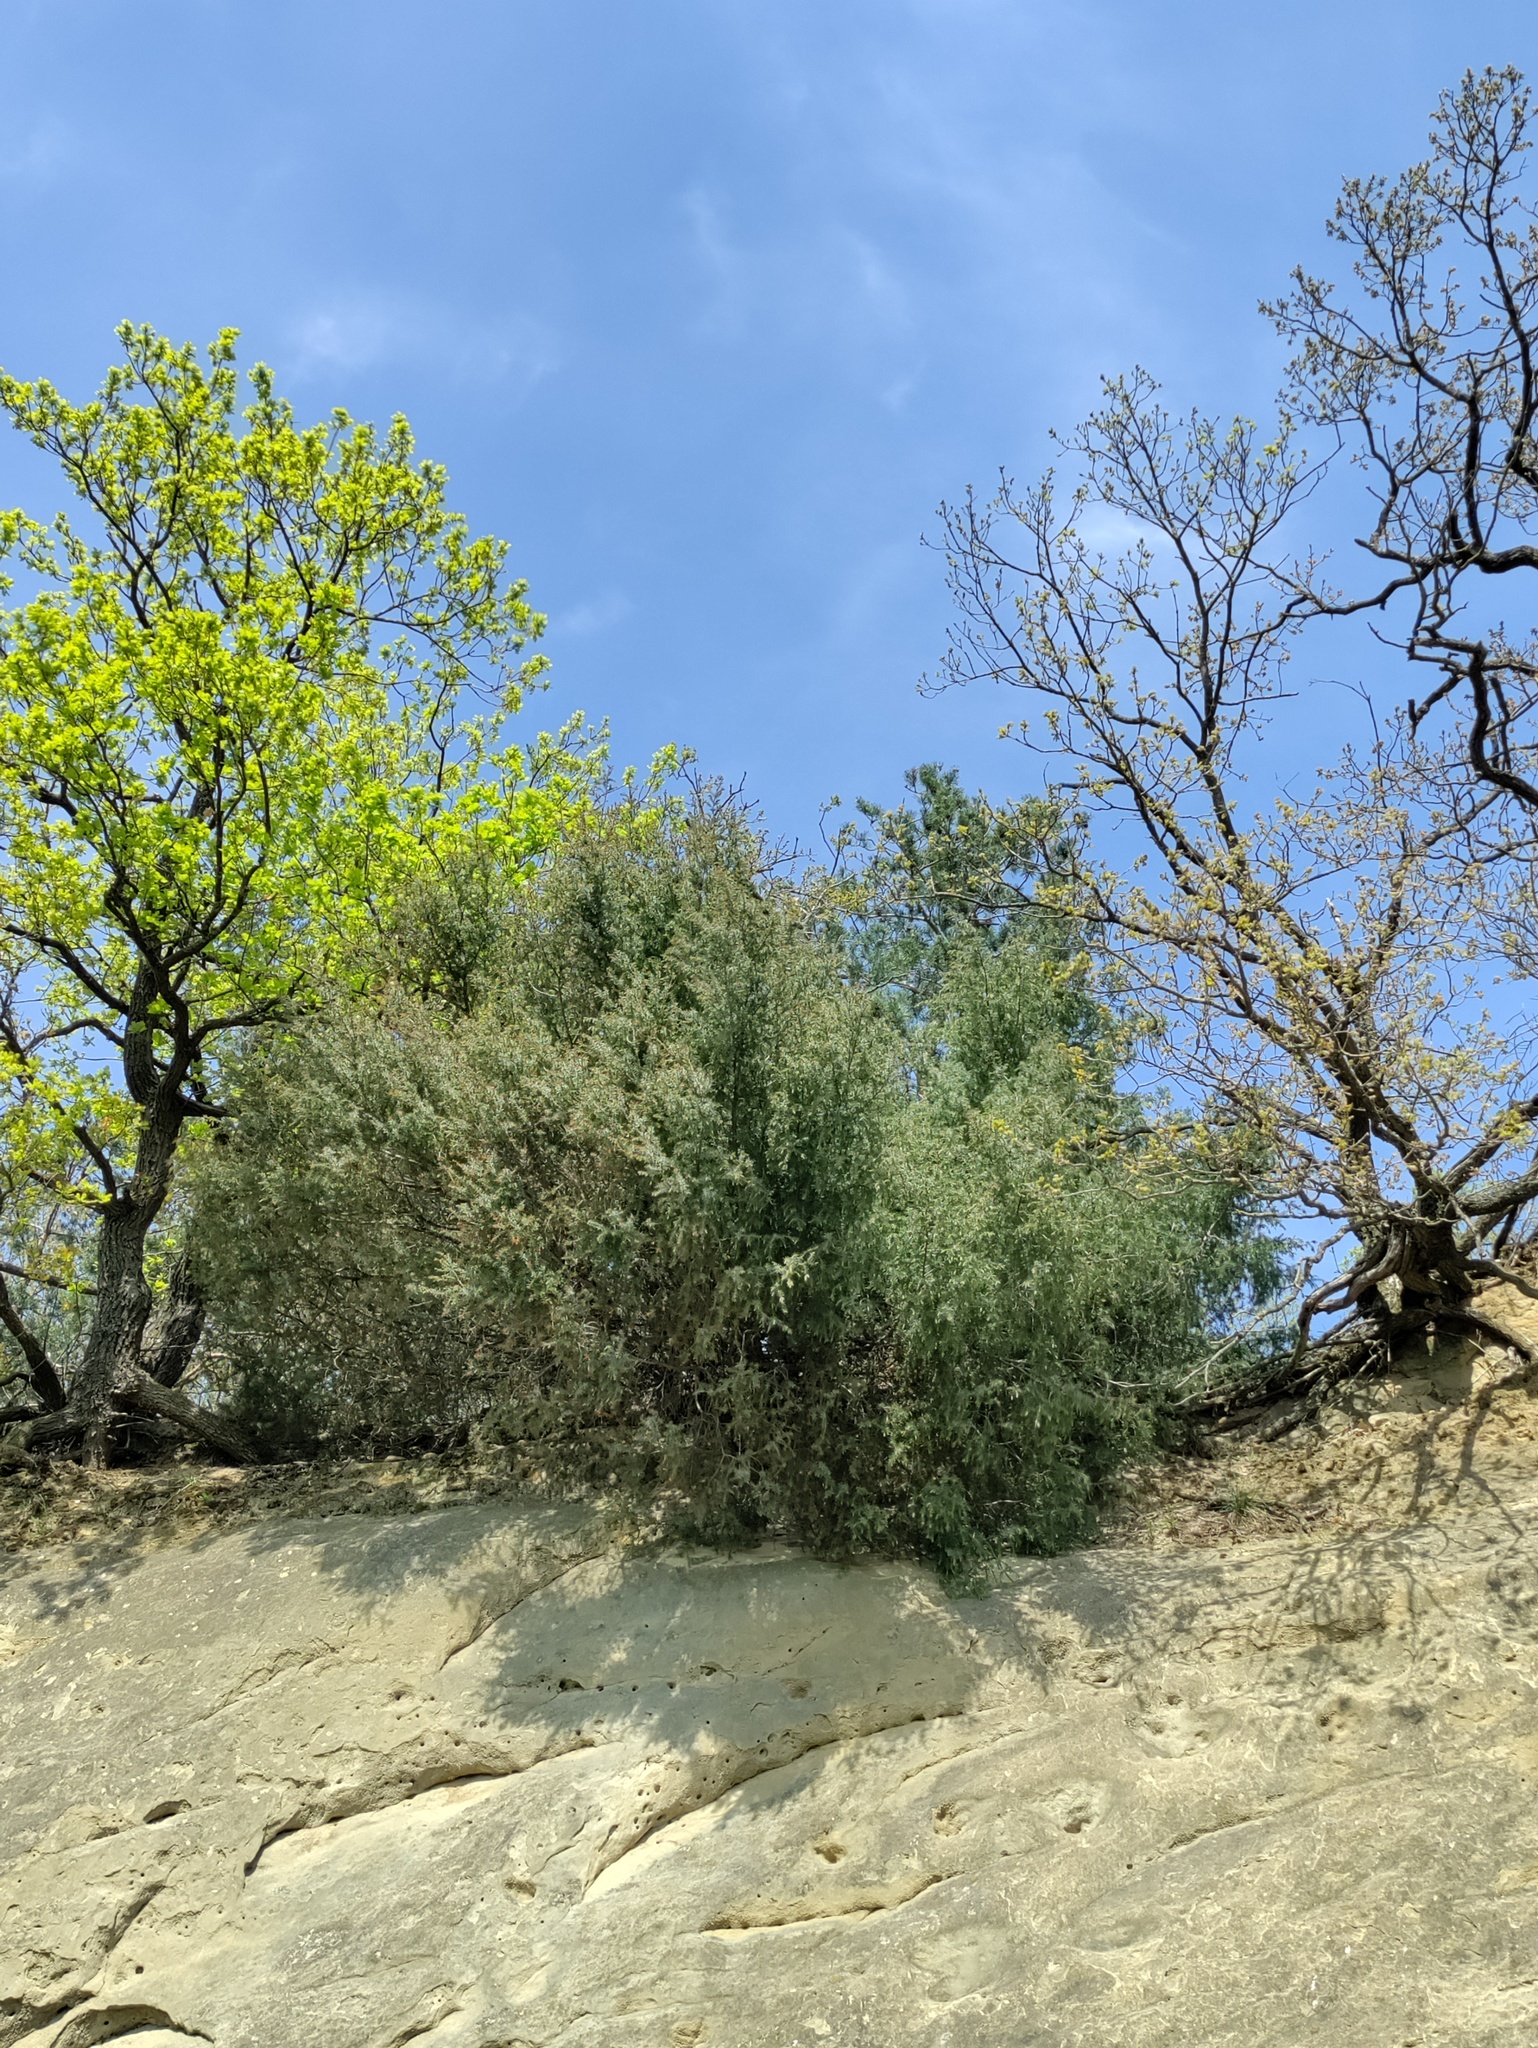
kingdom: Plantae
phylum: Tracheophyta
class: Pinopsida
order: Pinales
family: Cupressaceae
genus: Juniperus
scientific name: Juniperus communis
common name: Common juniper
